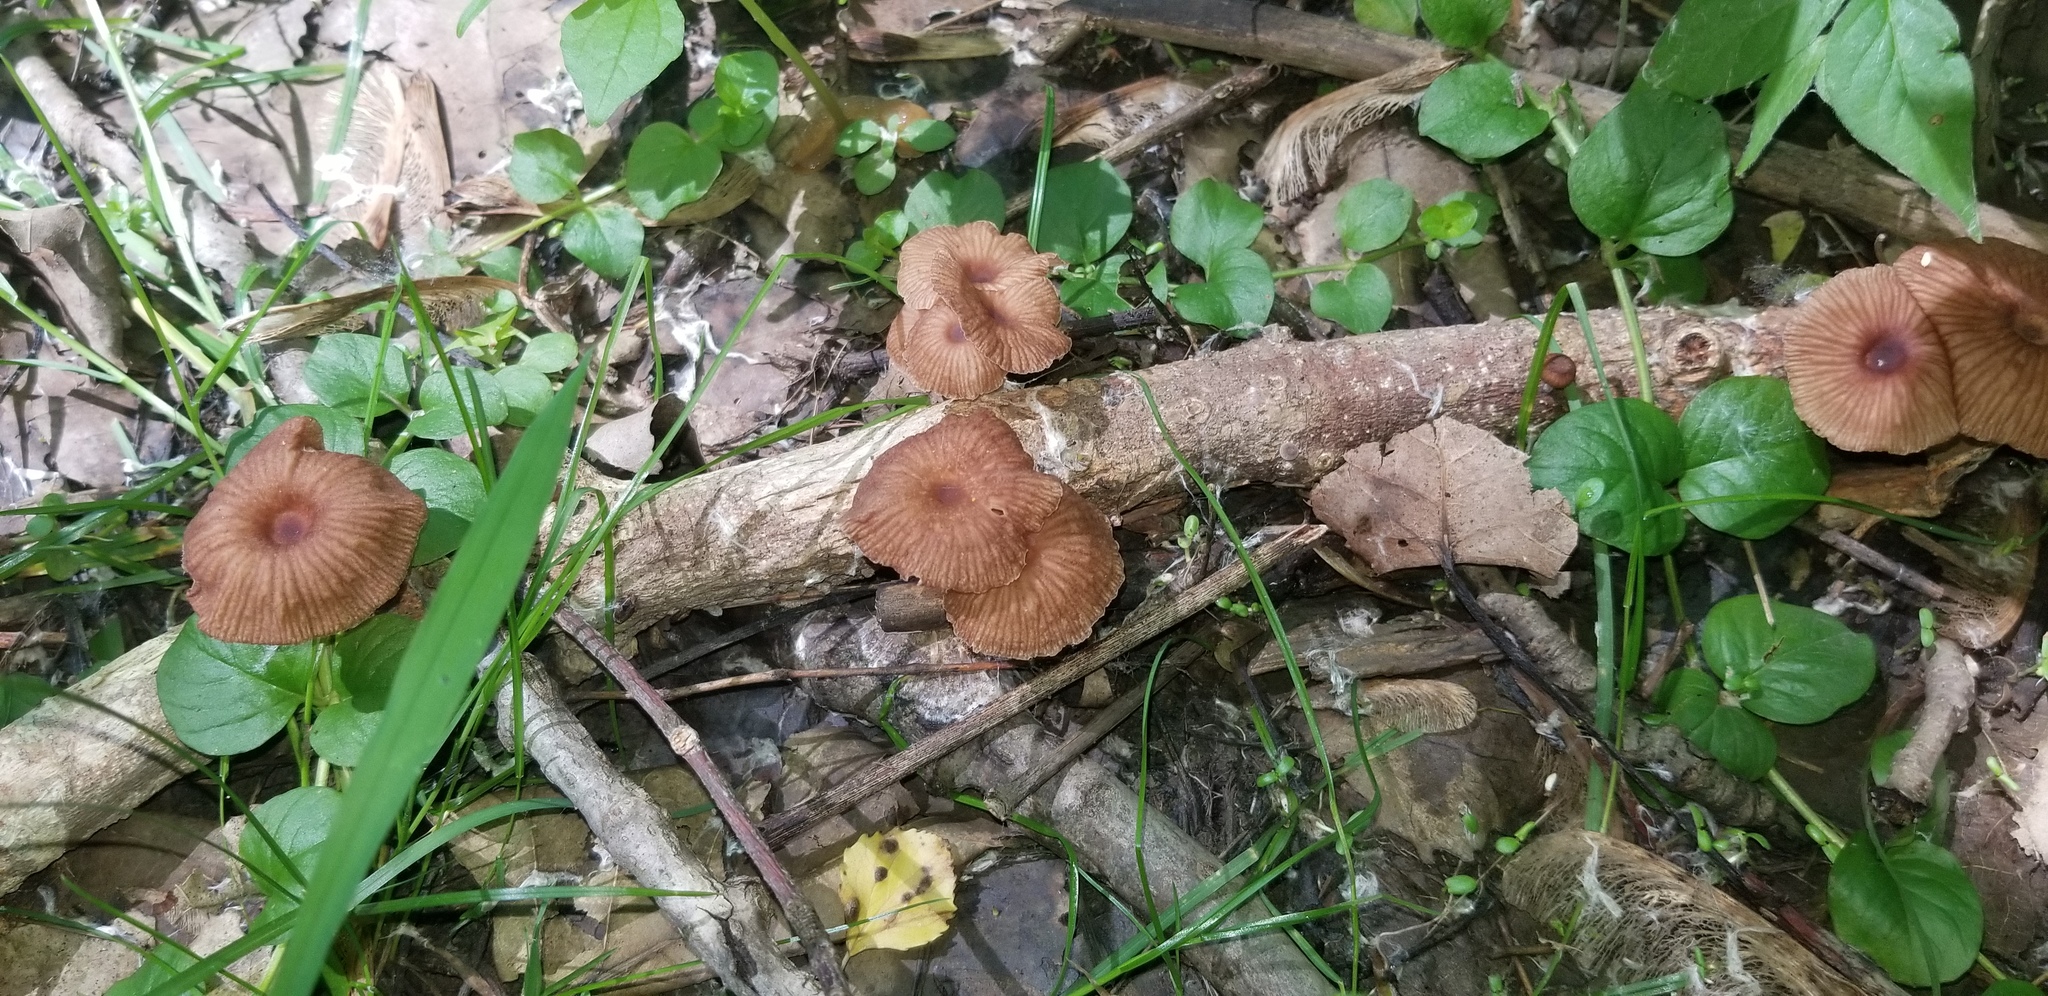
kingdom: Fungi
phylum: Basidiomycota
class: Agaricomycetes
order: Agaricales
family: Omphalotaceae
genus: Gymnopus
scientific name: Gymnopus foetidus
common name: Foetid parachute
